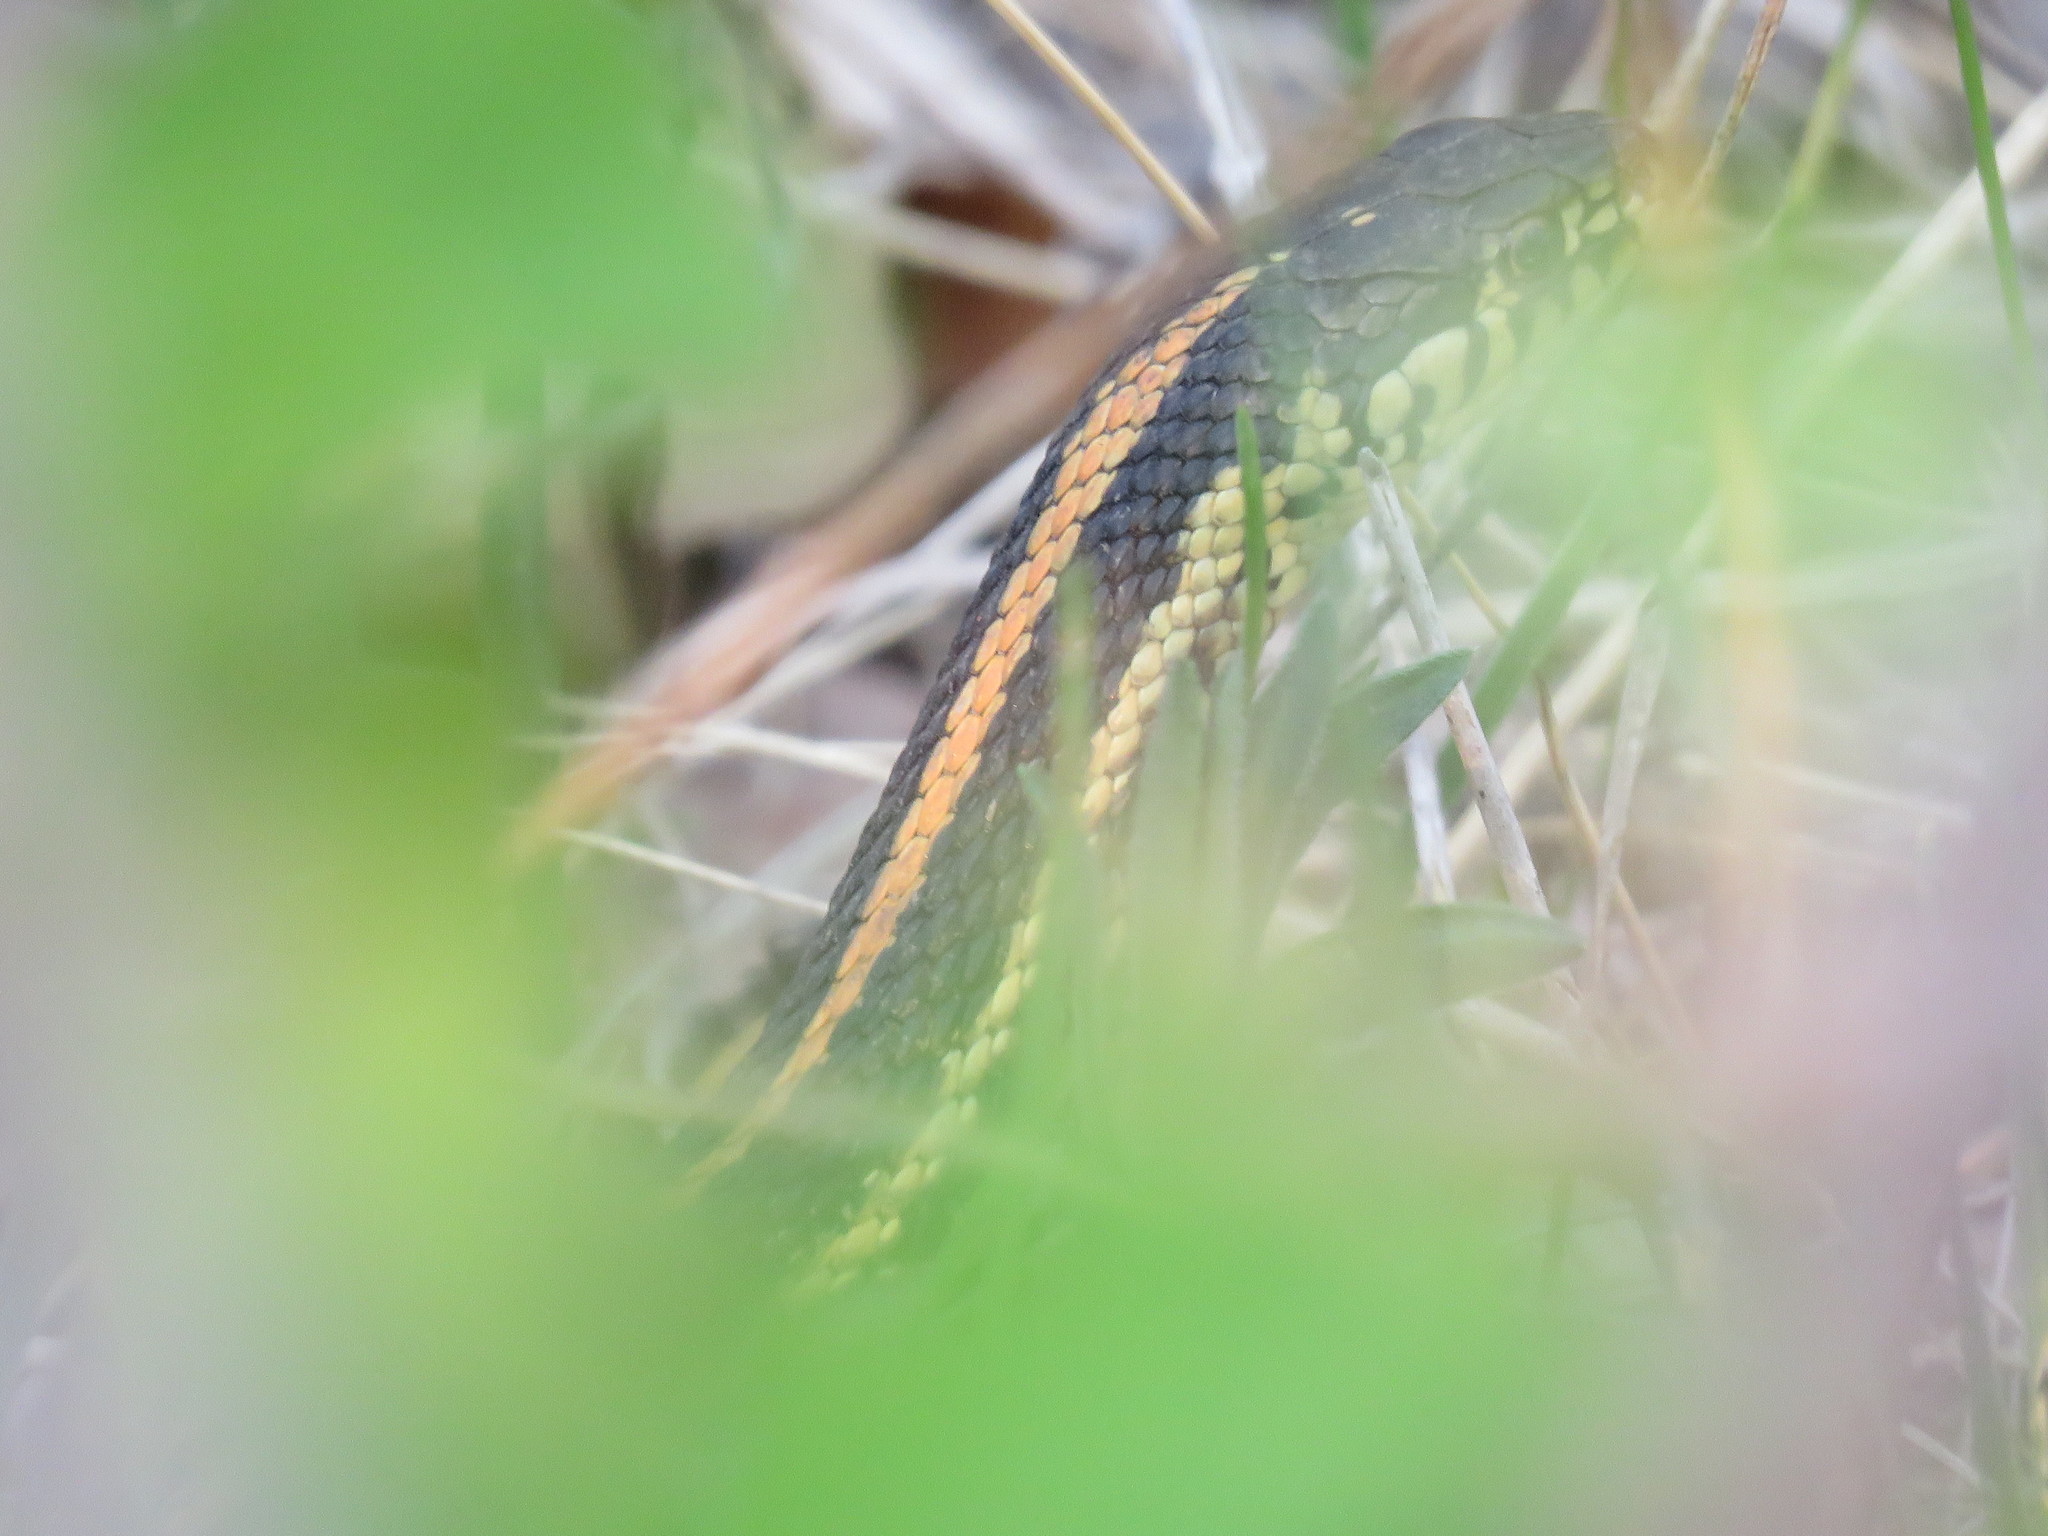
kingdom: Animalia
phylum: Chordata
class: Squamata
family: Colubridae
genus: Thamnophis
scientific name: Thamnophis radix
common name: Plains garter snake
